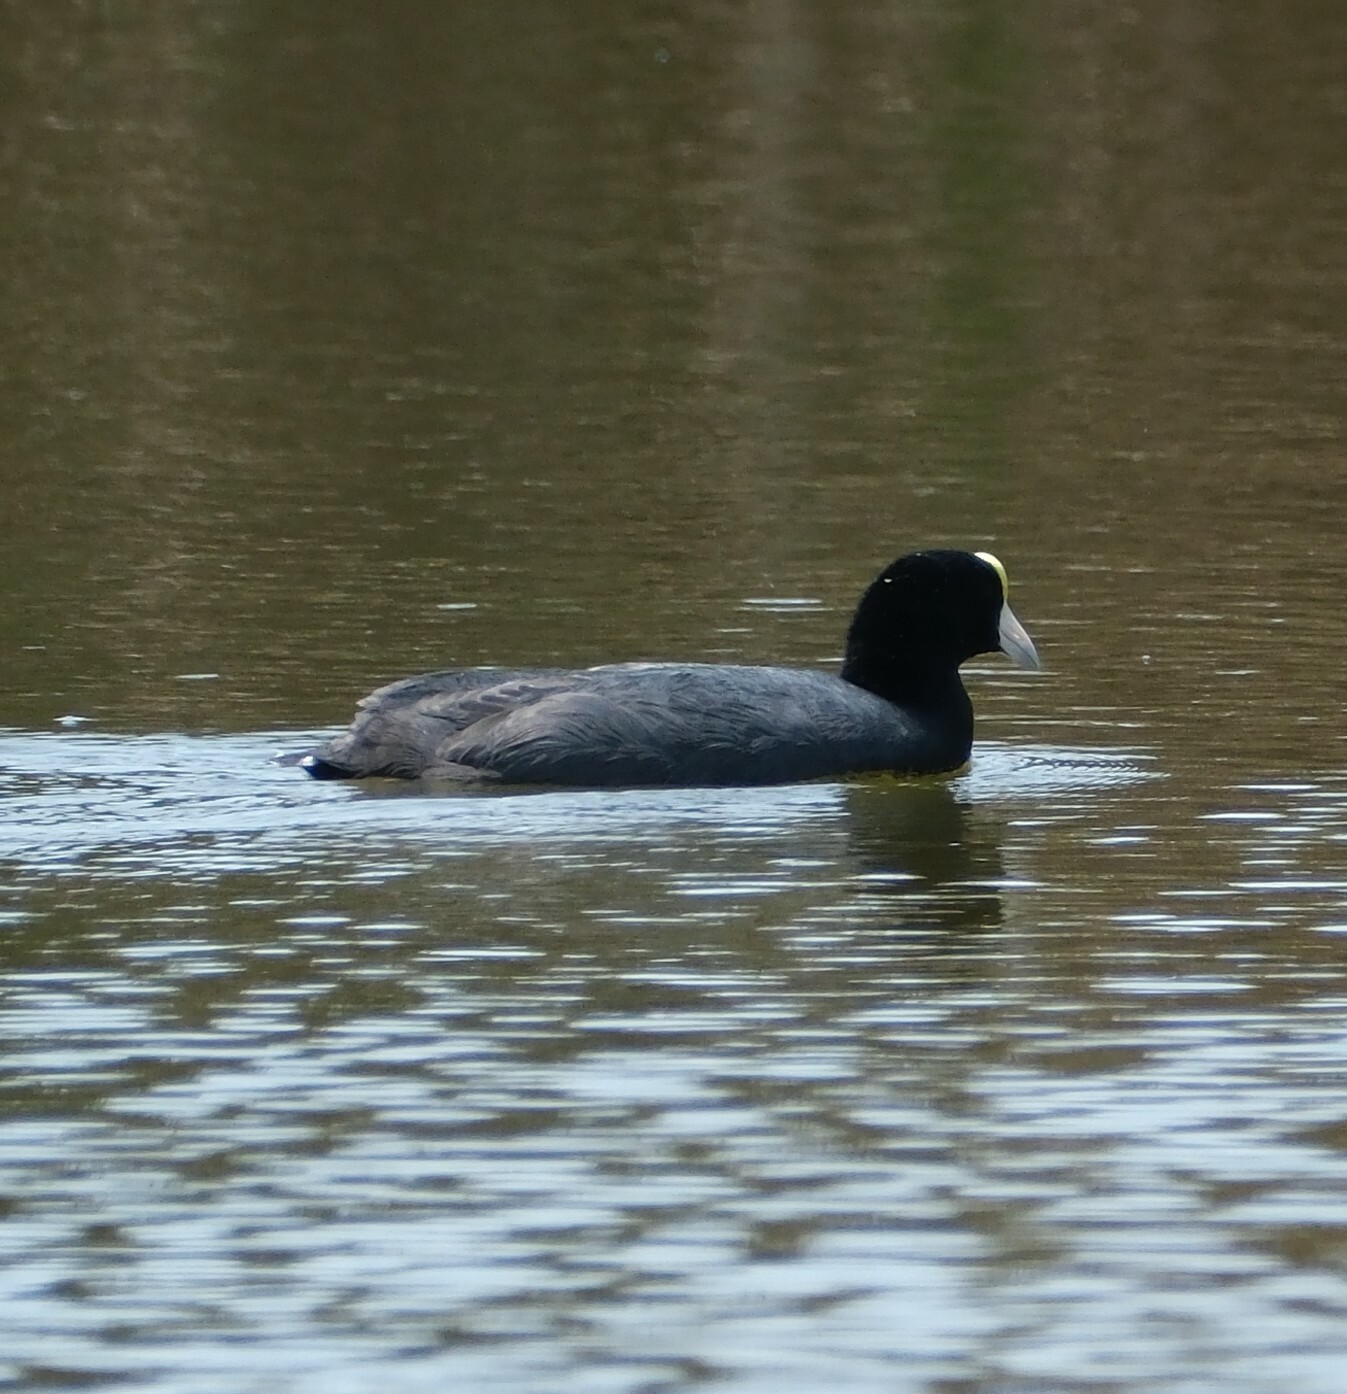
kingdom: Animalia
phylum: Chordata
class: Aves
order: Gruiformes
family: Rallidae
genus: Fulica
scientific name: Fulica ardesiaca
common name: Andean coot
